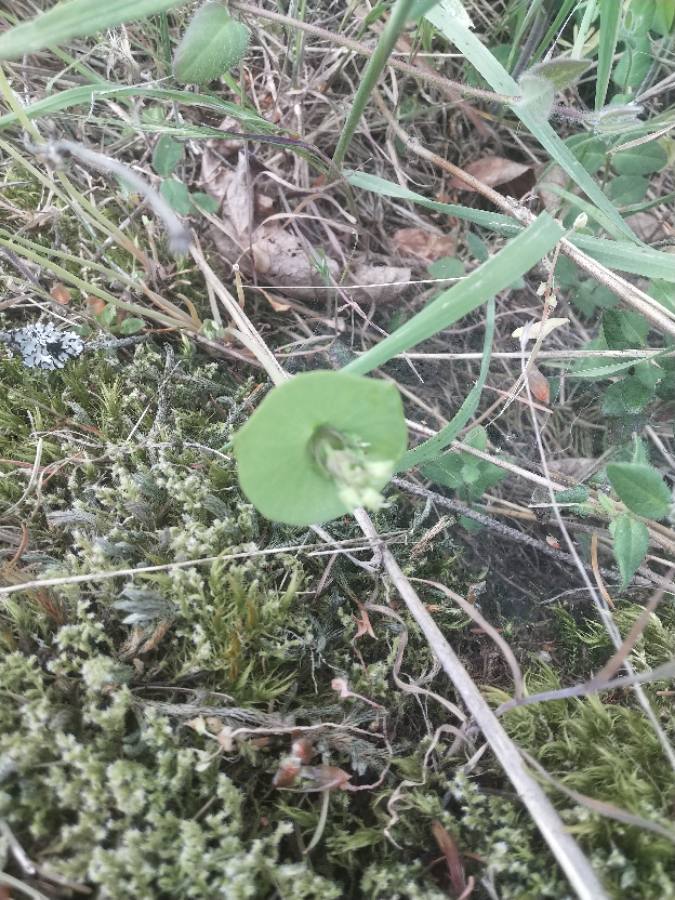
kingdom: Plantae
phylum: Tracheophyta
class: Magnoliopsida
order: Caryophyllales
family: Montiaceae
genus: Claytonia
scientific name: Claytonia perfoliata
